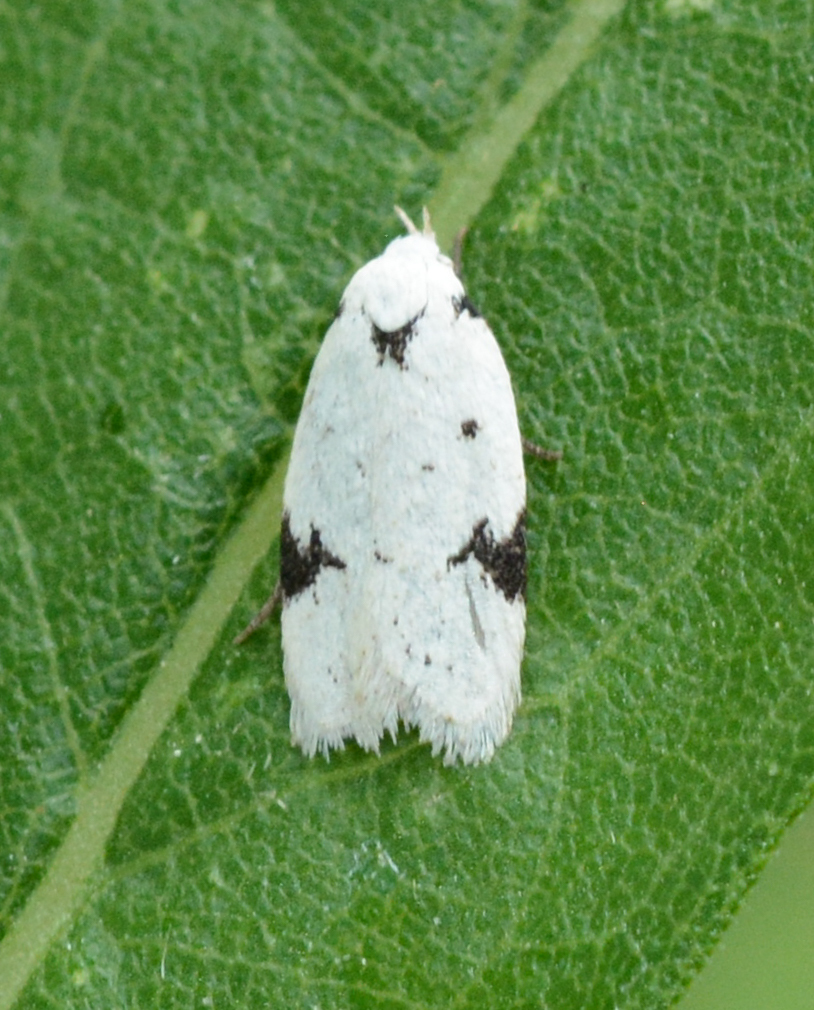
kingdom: Animalia
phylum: Arthropoda
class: Insecta
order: Lepidoptera
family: Oecophoridae
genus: Inga
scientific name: Inga sparsiciliella
